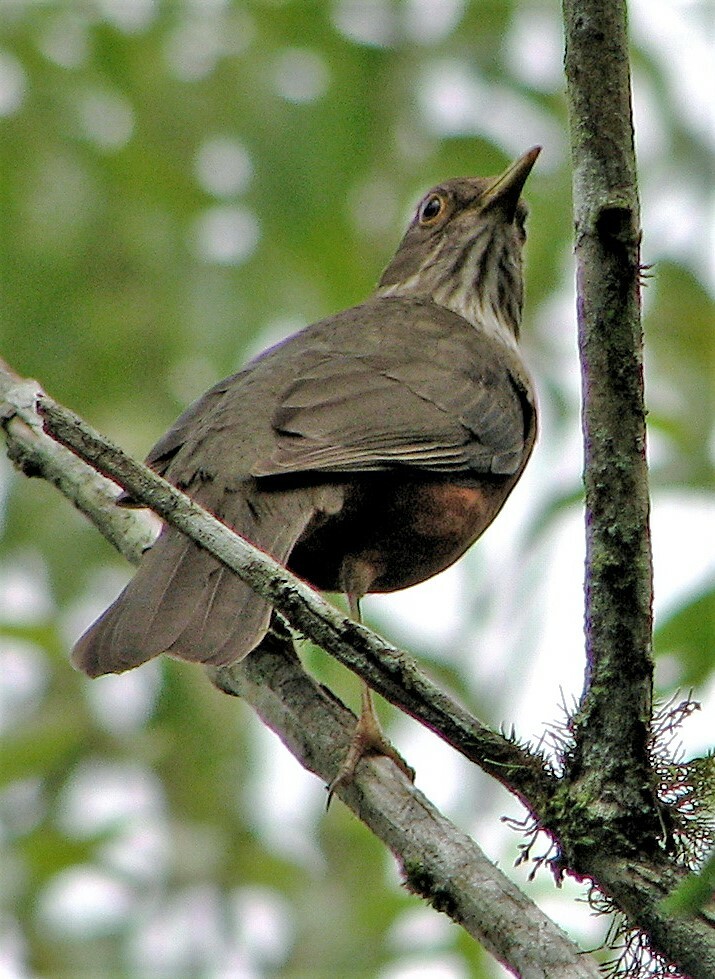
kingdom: Animalia
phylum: Chordata
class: Aves
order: Passeriformes
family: Turdidae
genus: Turdus
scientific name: Turdus rufiventris
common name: Rufous-bellied thrush
